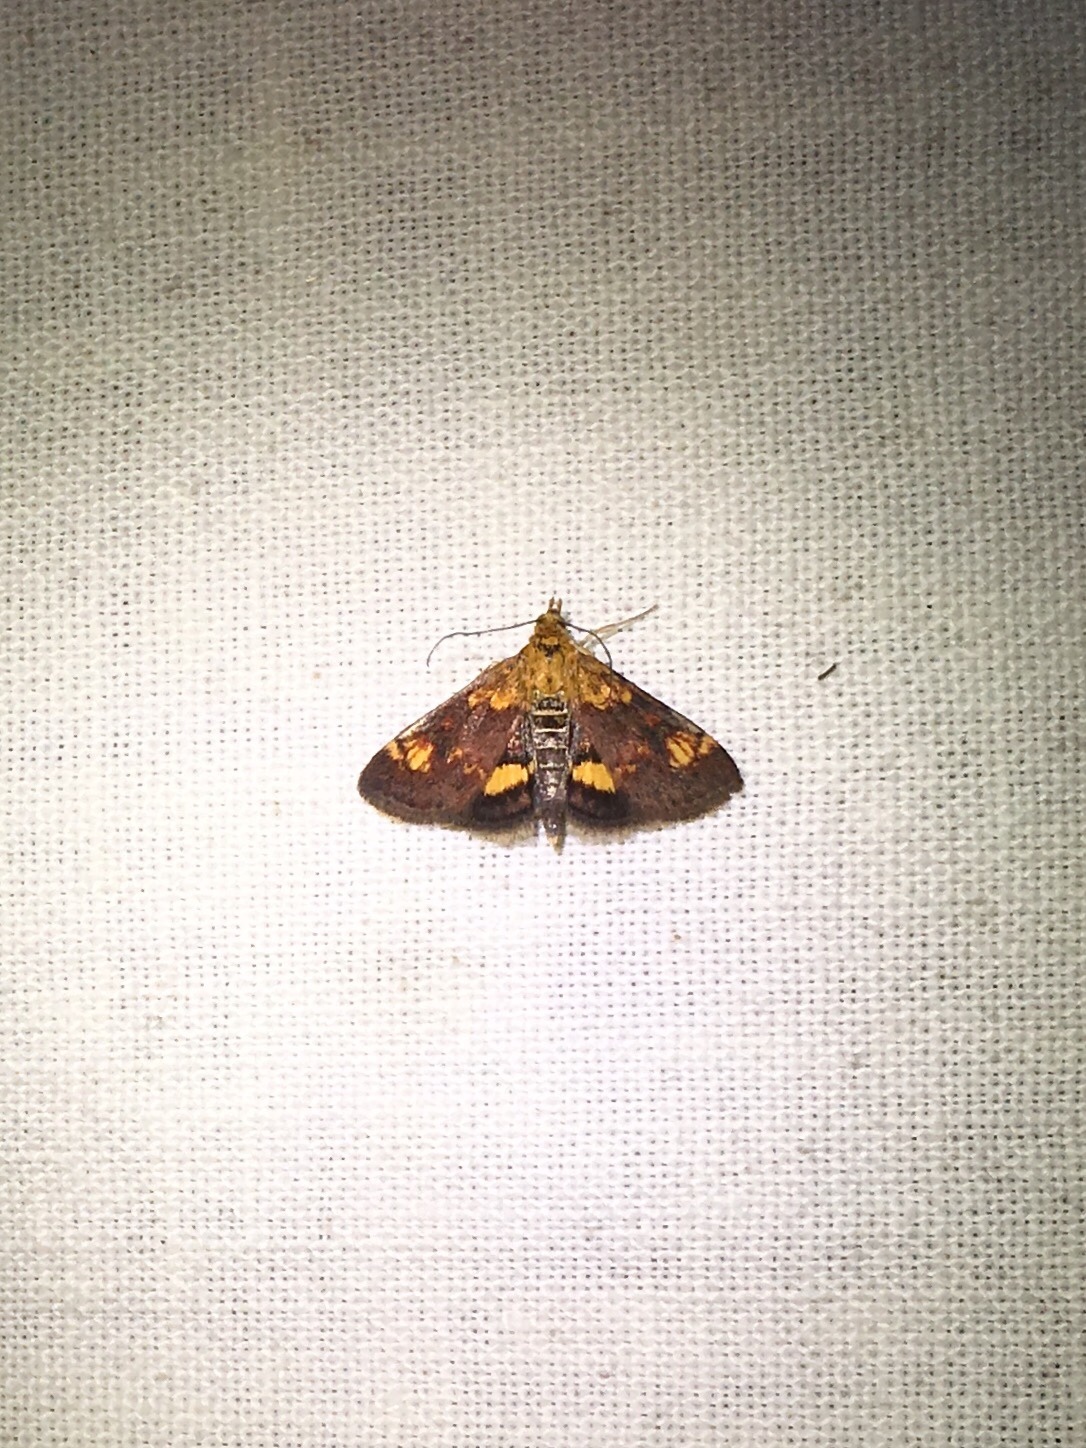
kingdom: Animalia
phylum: Arthropoda
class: Insecta
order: Lepidoptera
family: Crambidae
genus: Pyrausta
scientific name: Pyrausta orphisalis
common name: Orange mint moth
